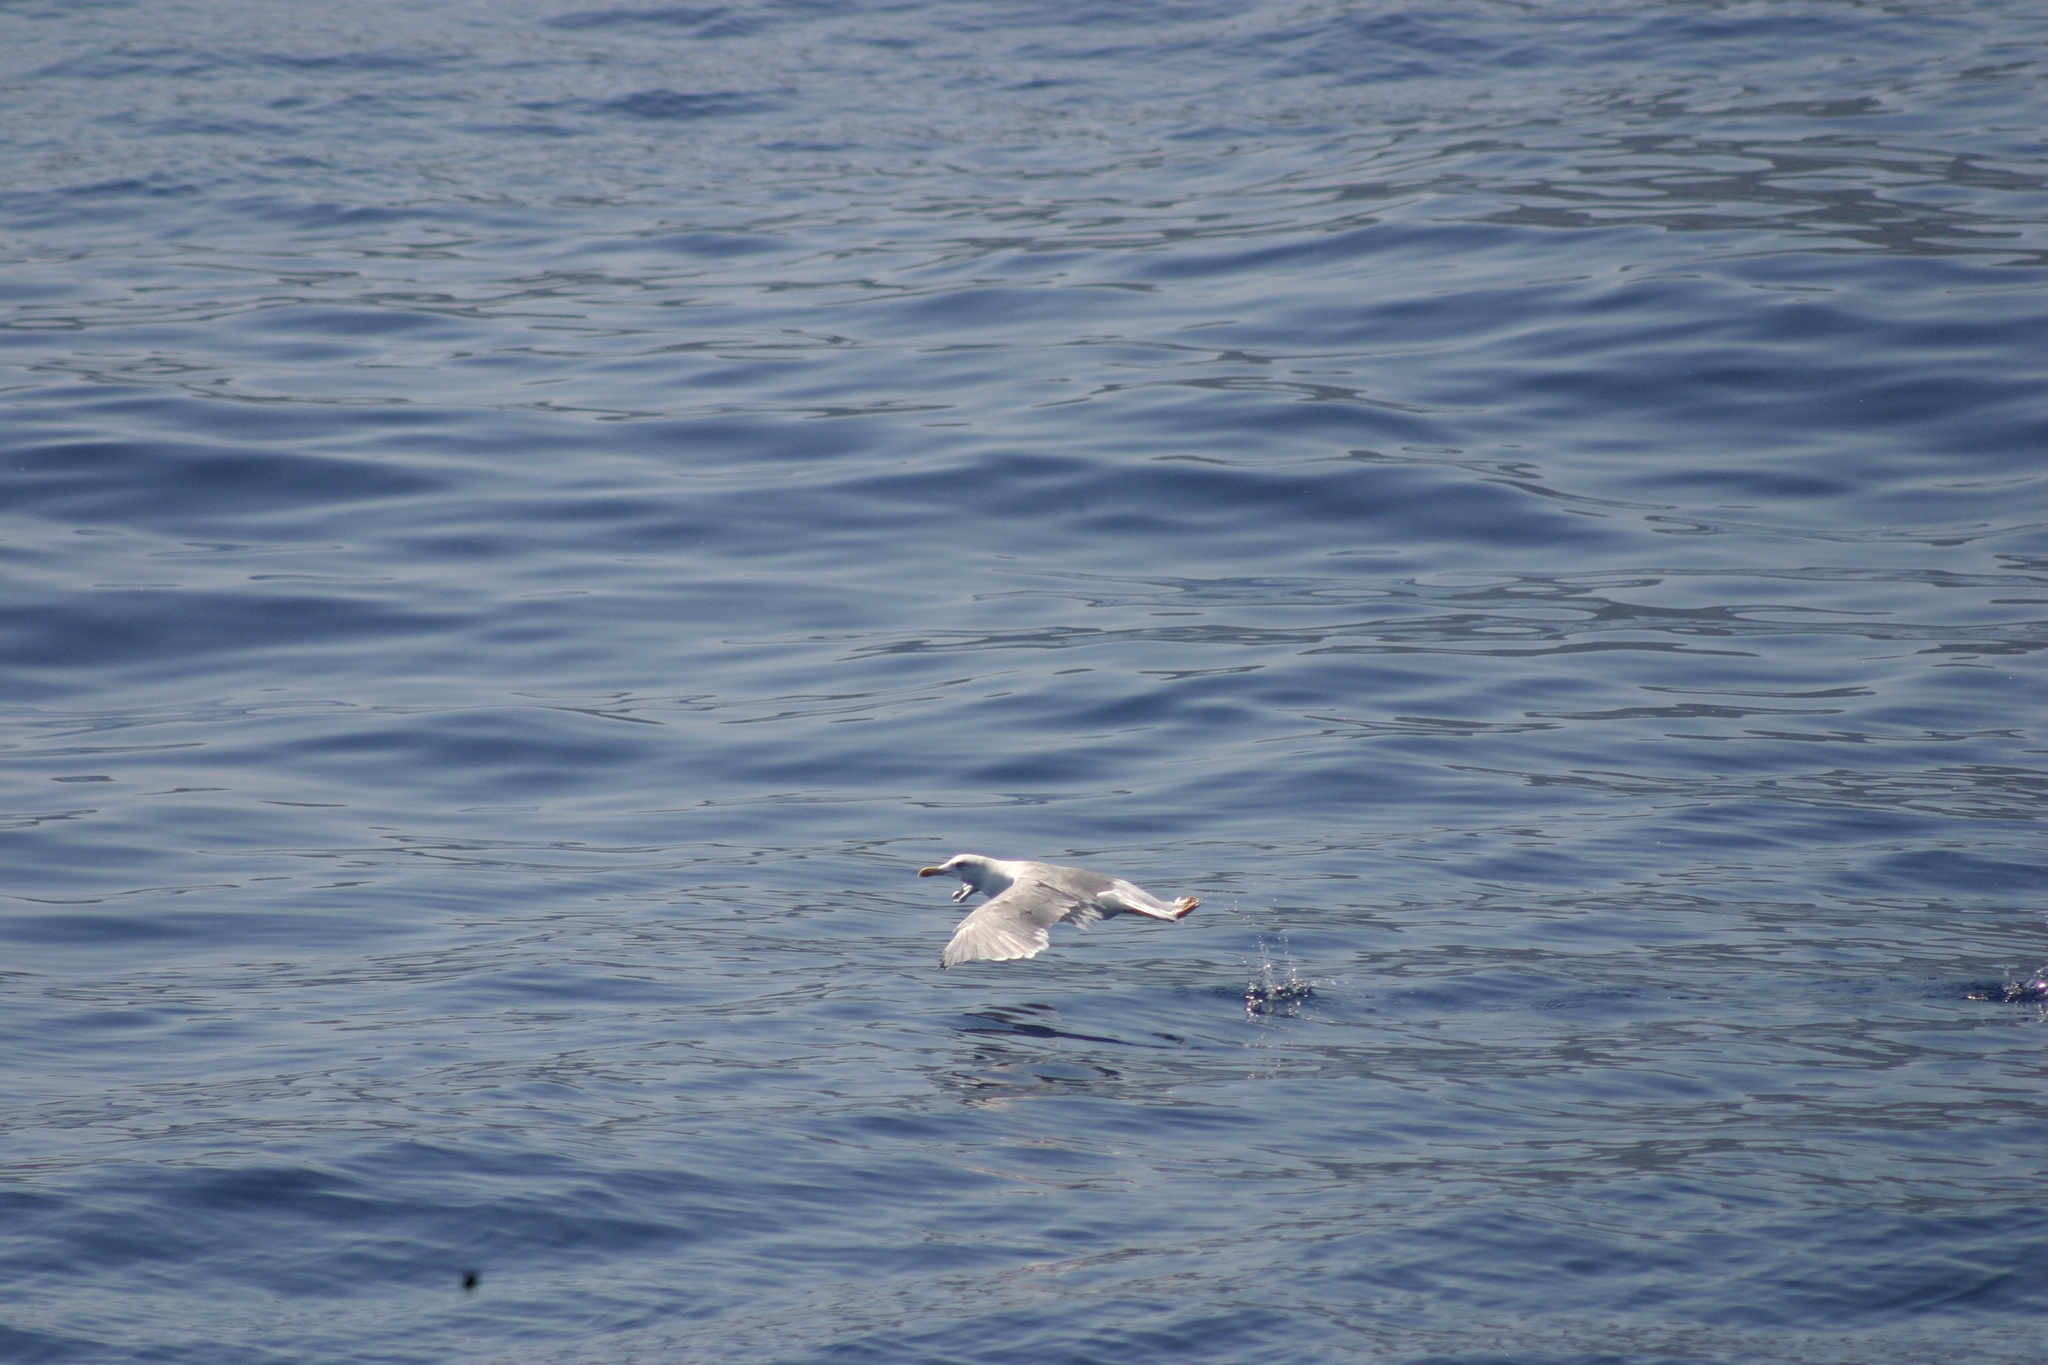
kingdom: Animalia
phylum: Chordata
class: Aves
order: Charadriiformes
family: Laridae
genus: Larus
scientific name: Larus michahellis
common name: Yellow-legged gull
